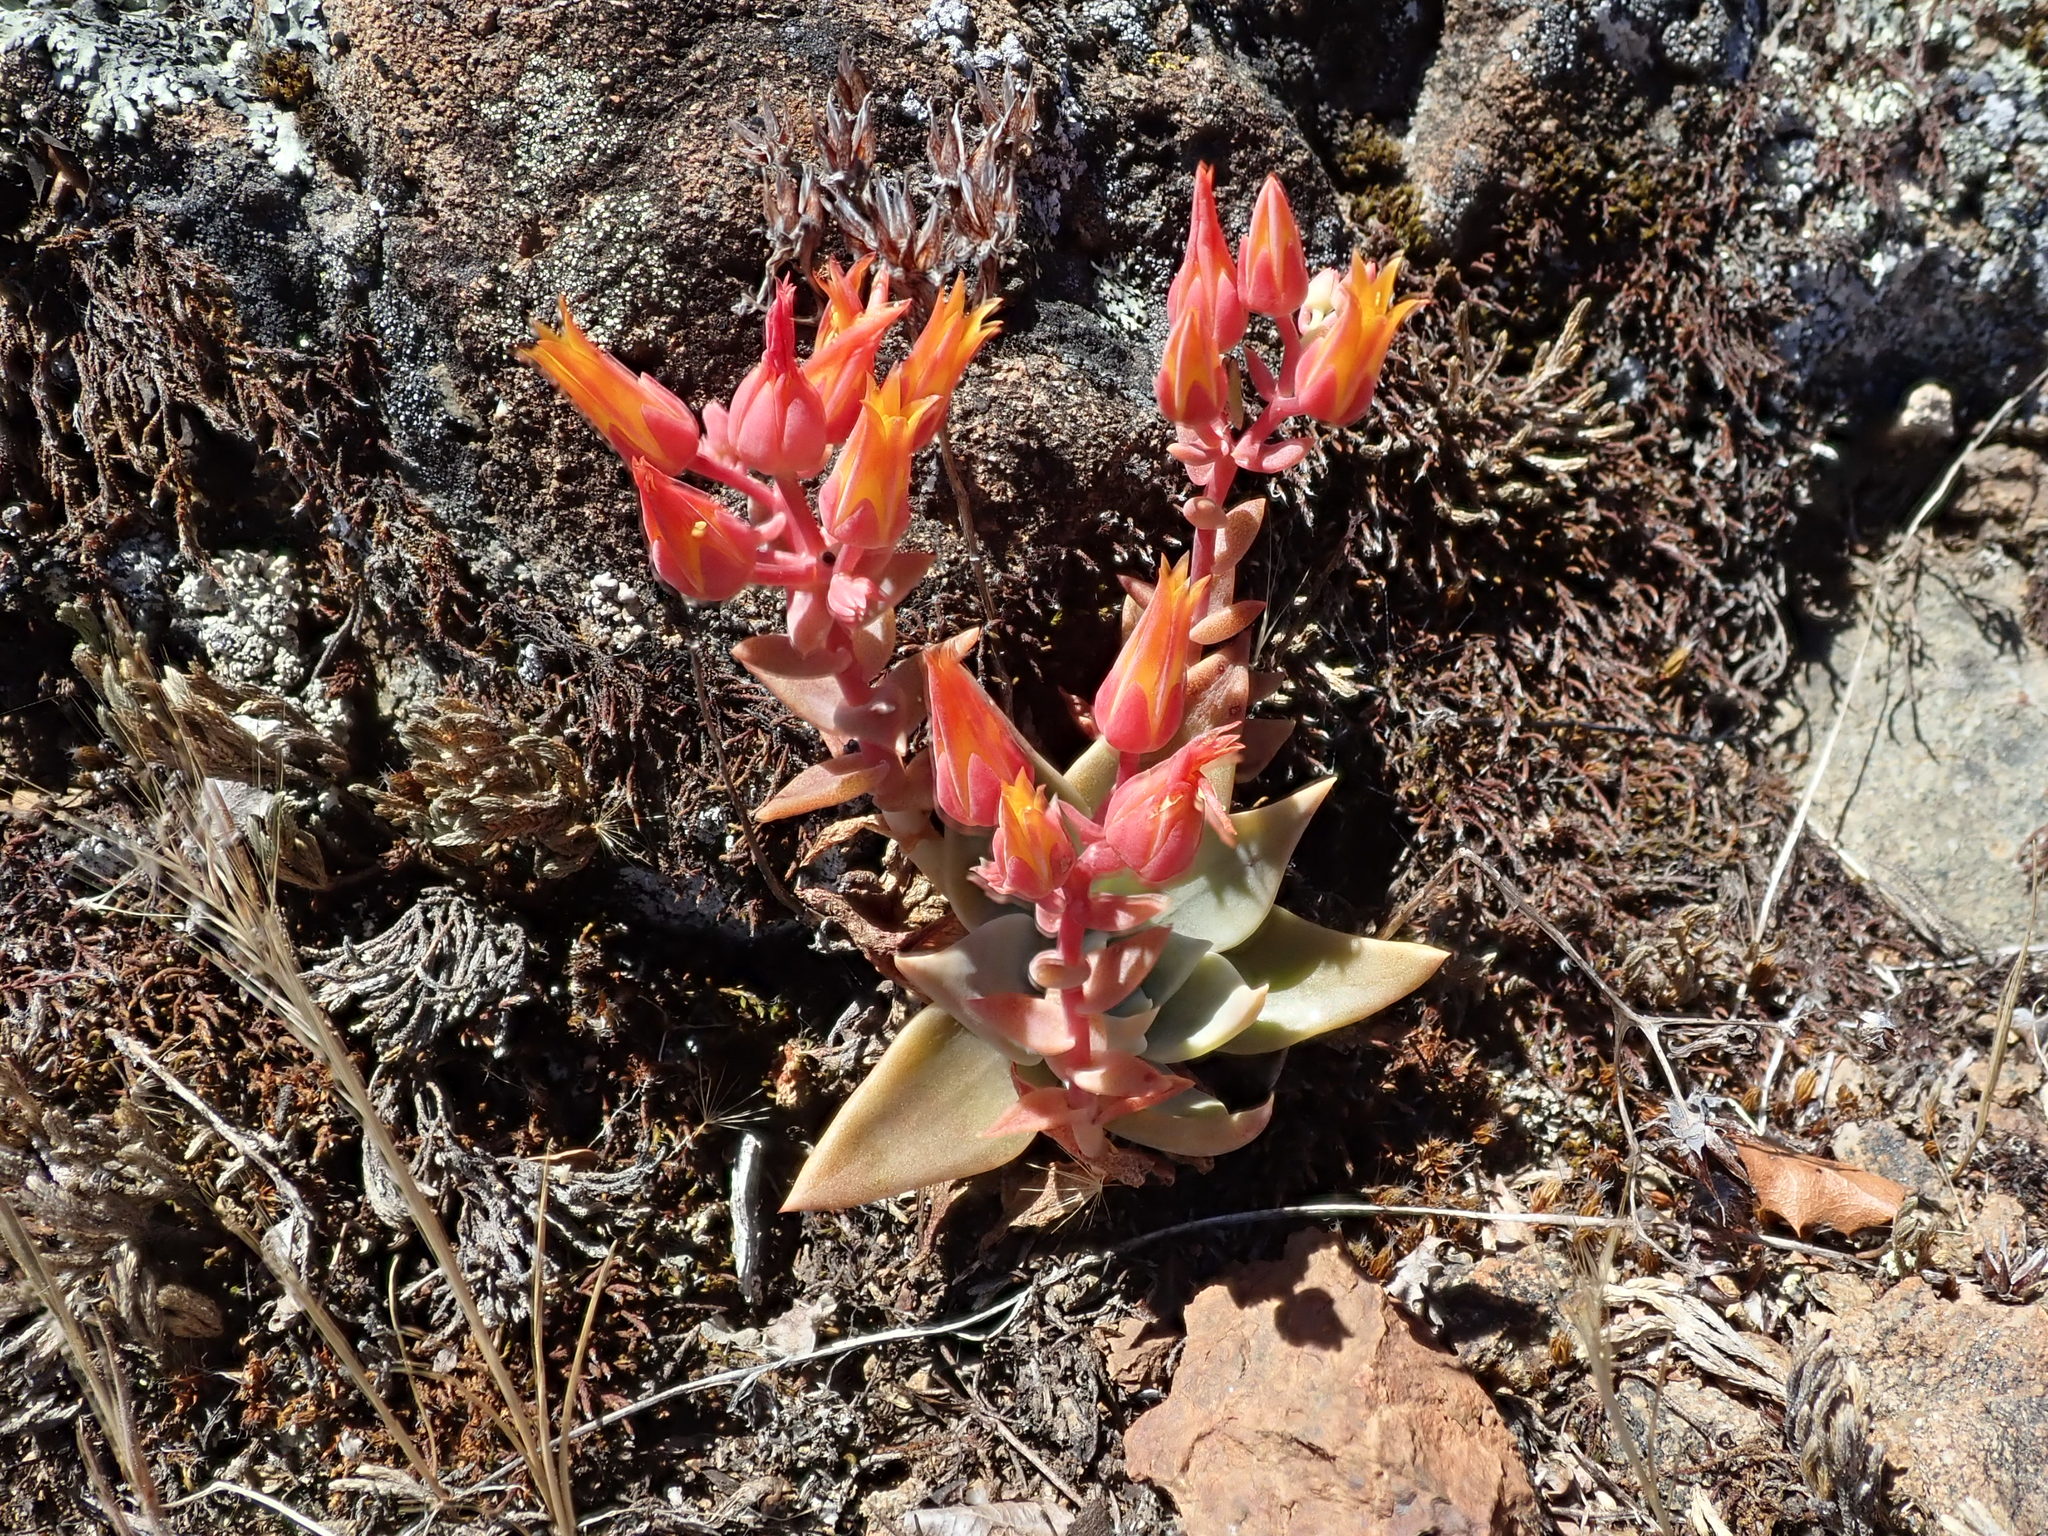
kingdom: Plantae
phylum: Tracheophyta
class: Magnoliopsida
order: Saxifragales
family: Crassulaceae
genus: Dudleya
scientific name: Dudleya cymosa
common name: Canyon dudleya
